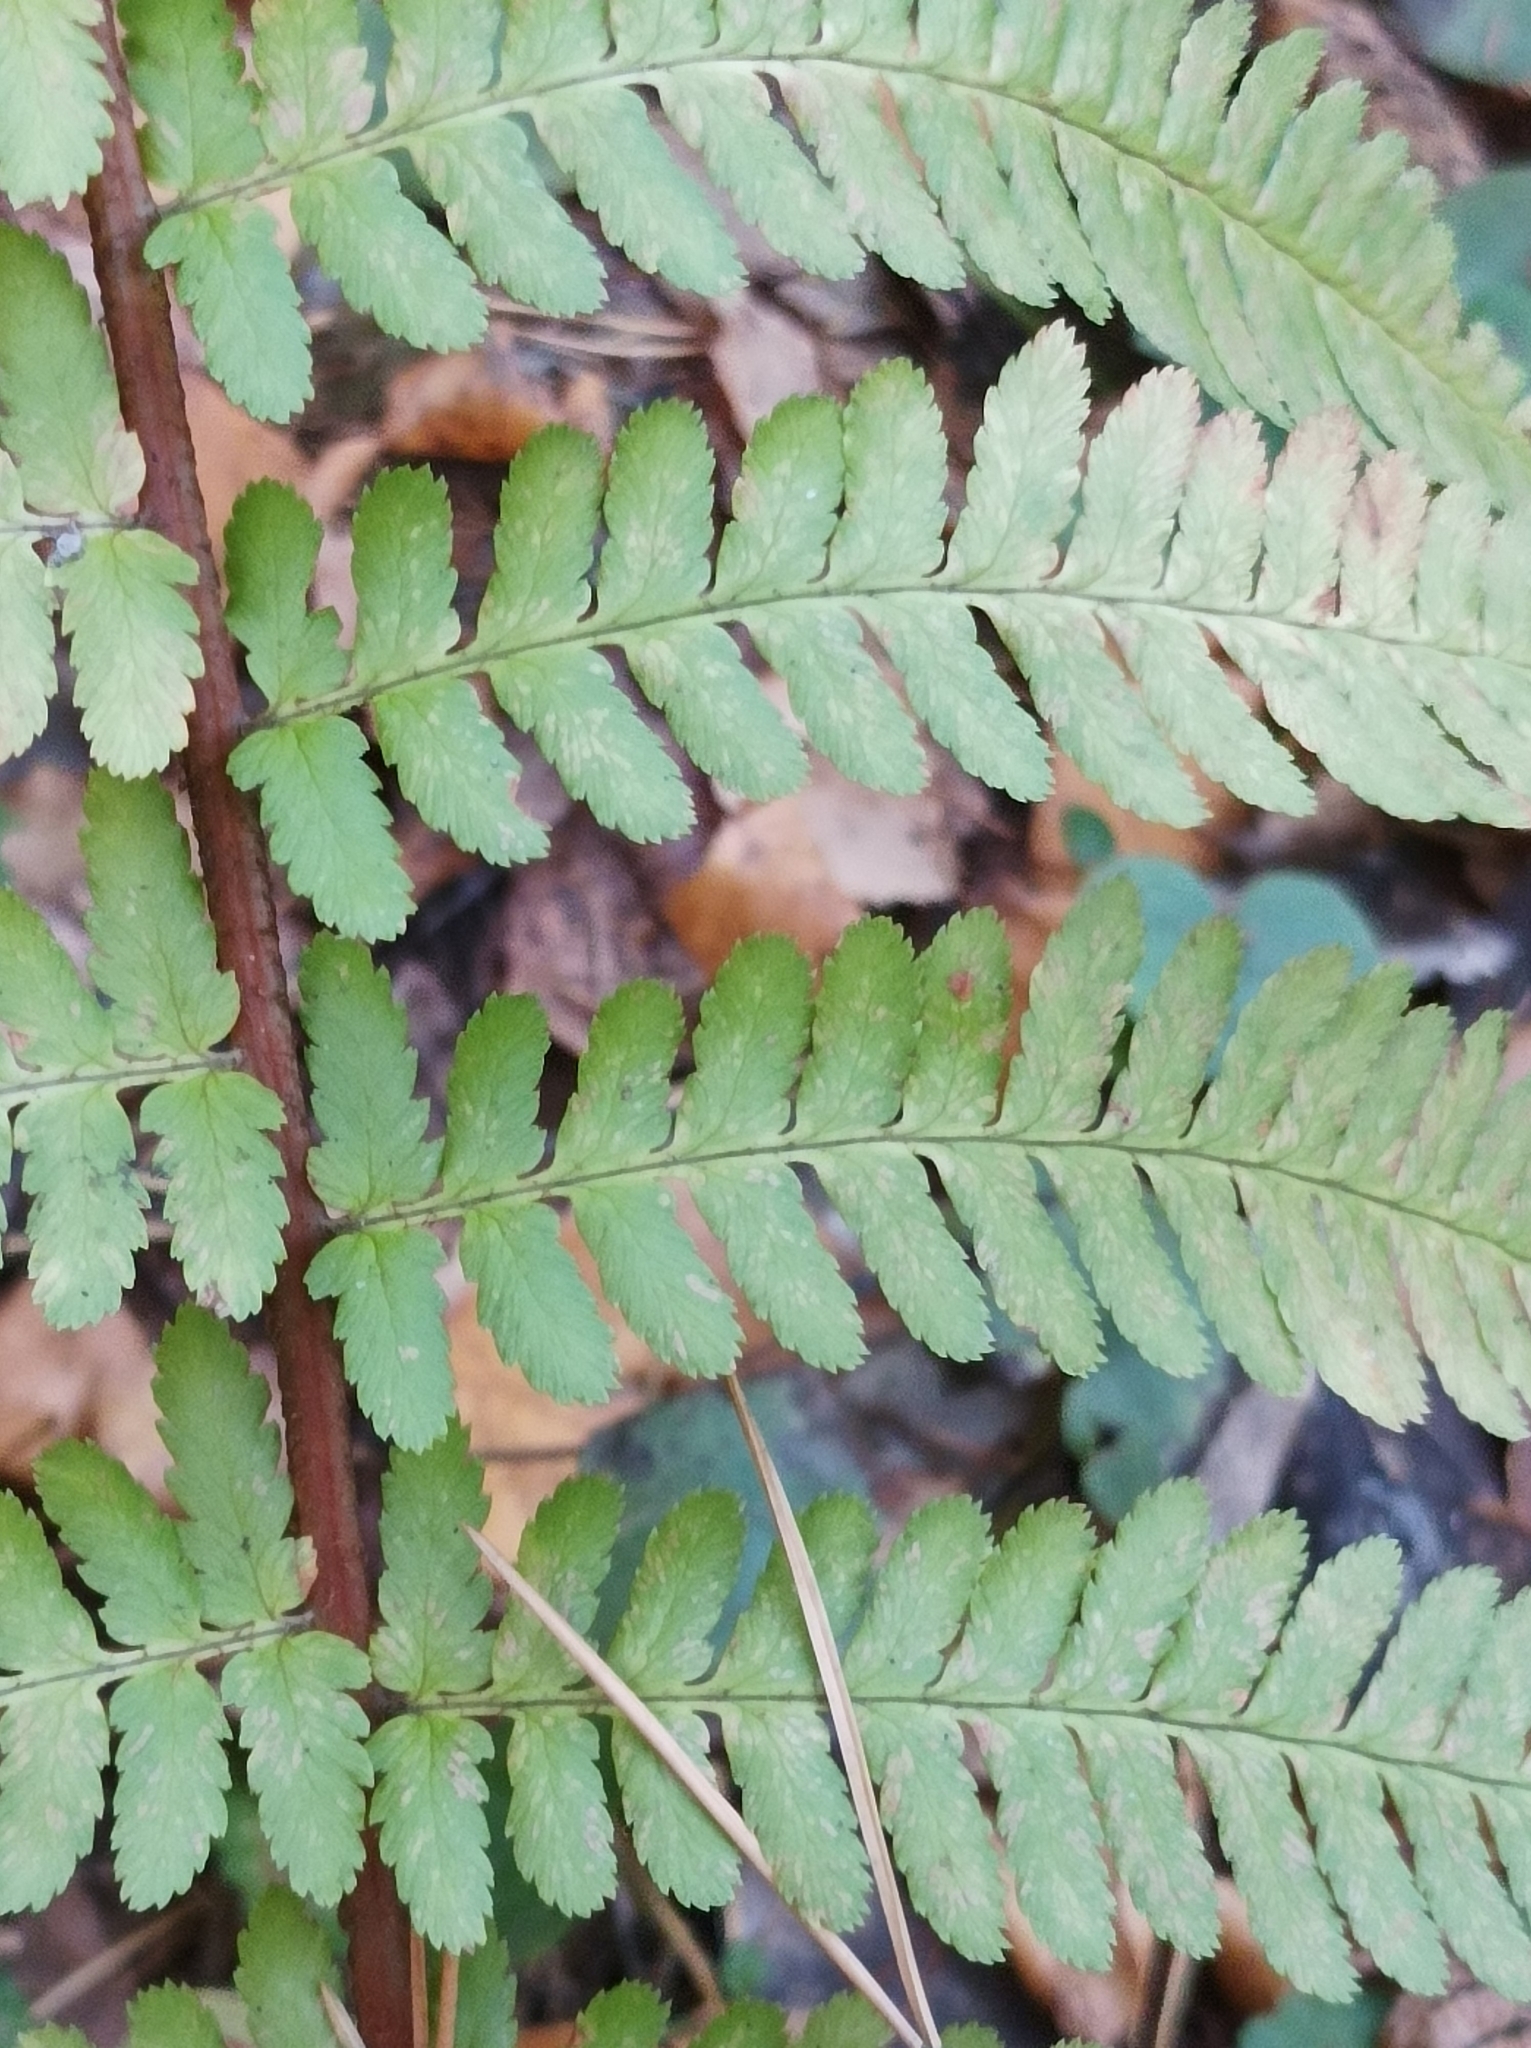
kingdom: Plantae
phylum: Tracheophyta
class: Polypodiopsida
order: Polypodiales
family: Dryopteridaceae
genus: Dryopteris
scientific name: Dryopteris filix-mas
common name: Male fern
